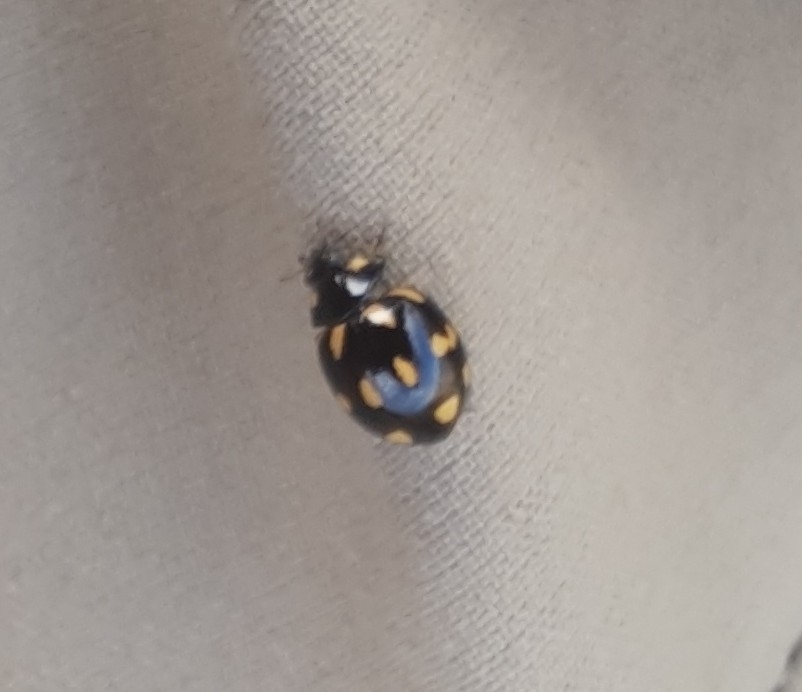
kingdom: Animalia
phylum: Arthropoda
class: Insecta
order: Coleoptera
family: Coccinellidae
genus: Coccinella
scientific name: Coccinella leonina
